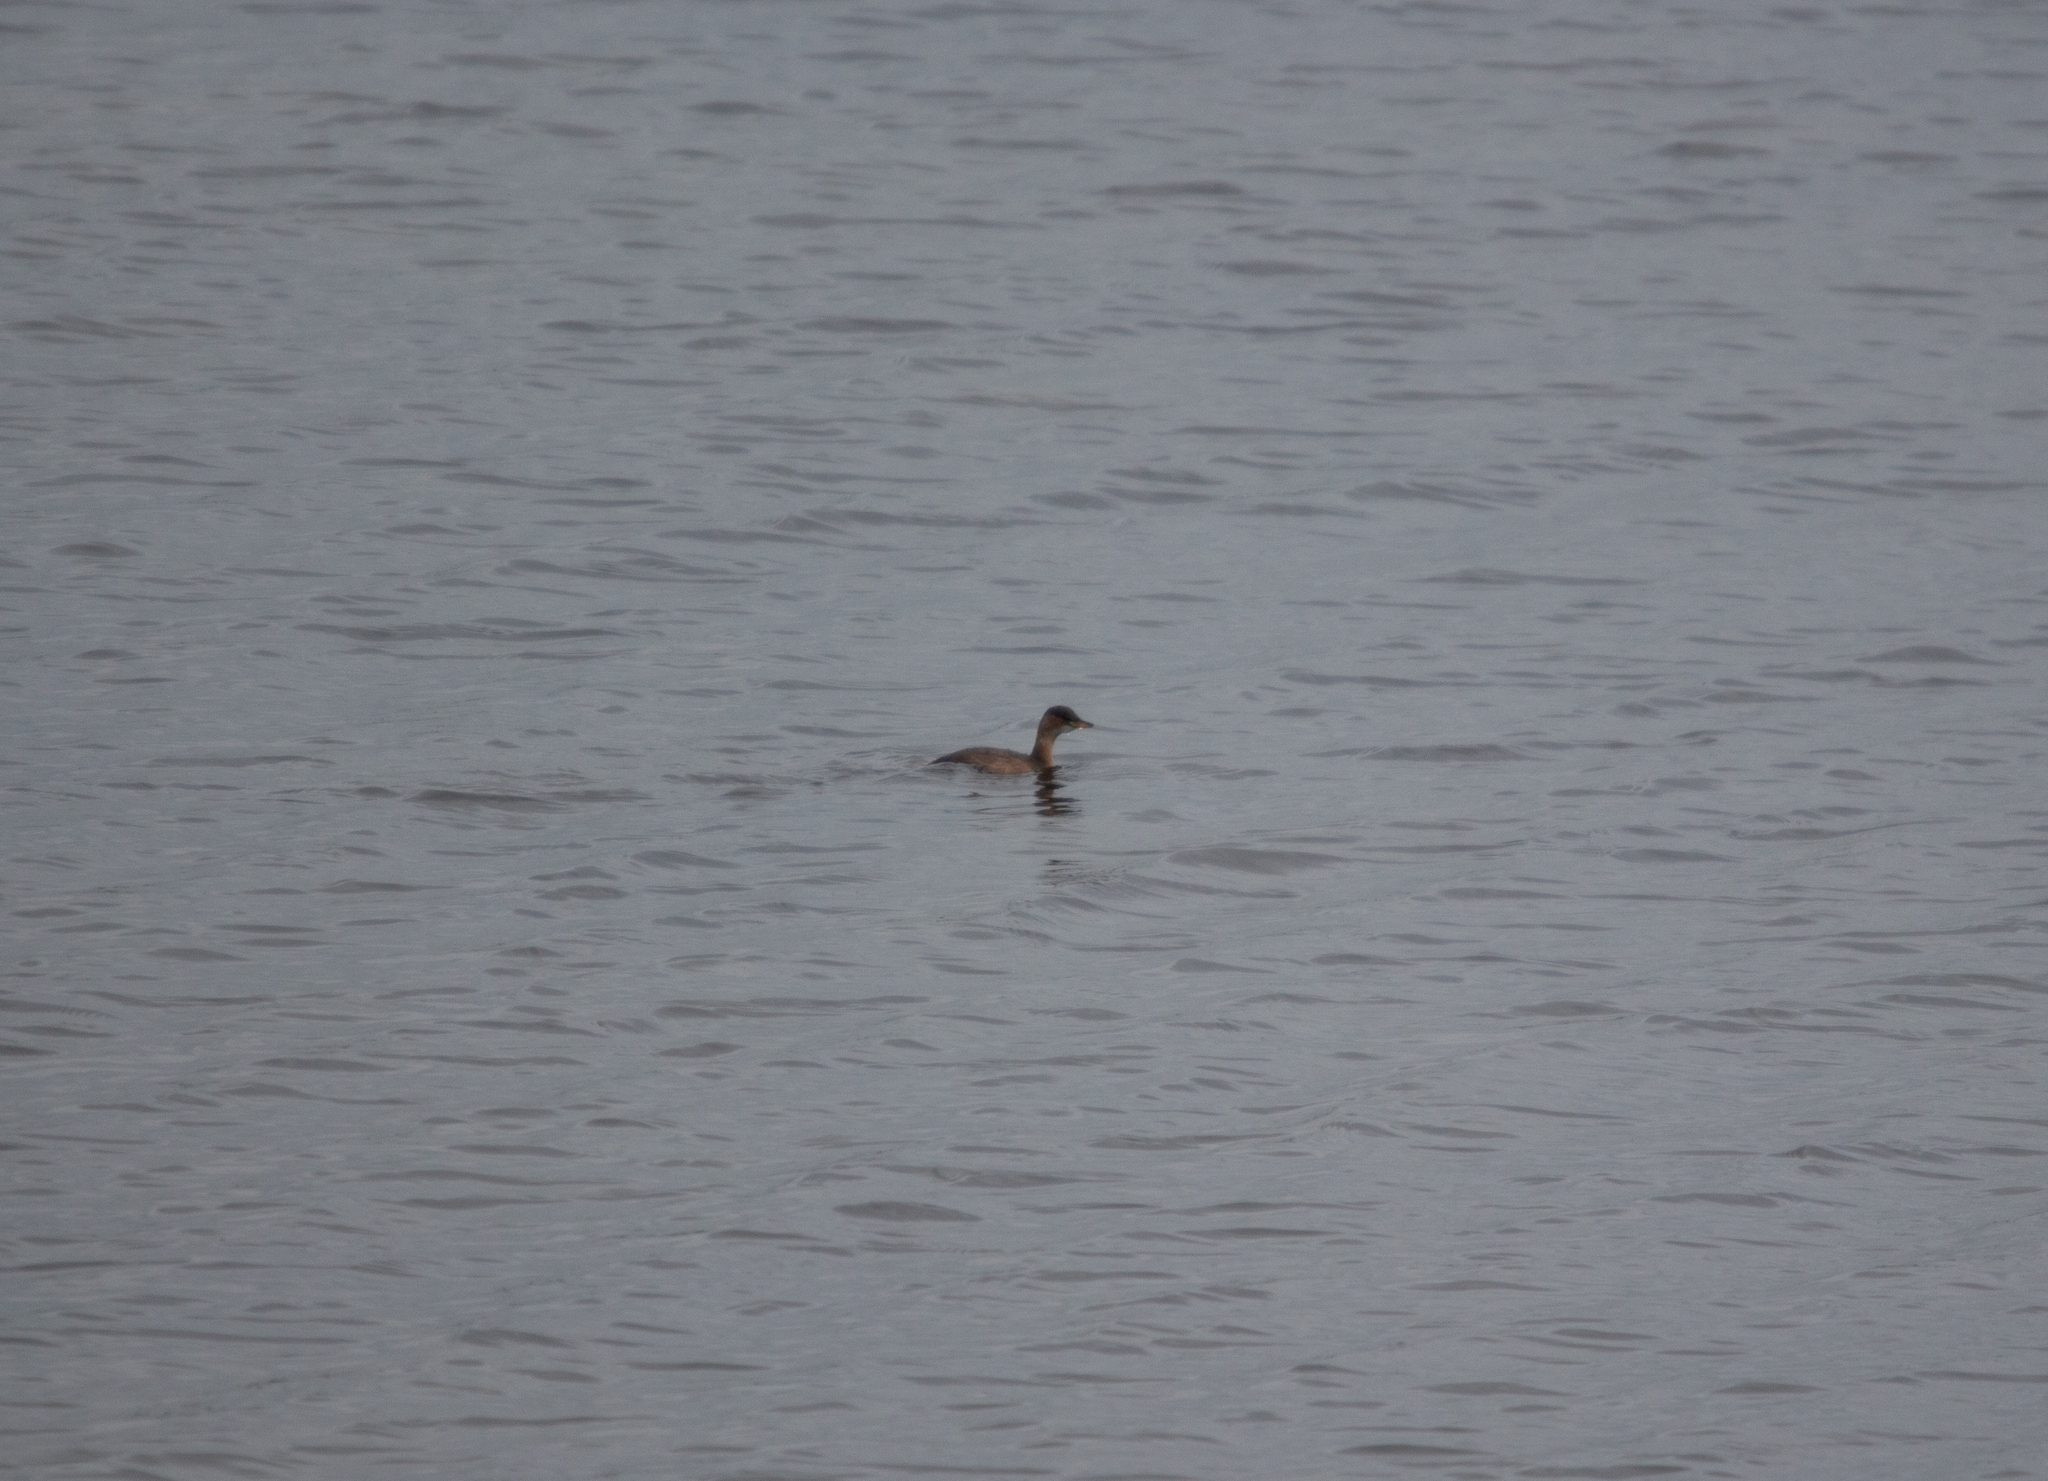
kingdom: Animalia
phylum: Chordata
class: Aves
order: Podicipediformes
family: Podicipedidae
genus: Tachybaptus
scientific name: Tachybaptus ruficollis
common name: Little grebe
